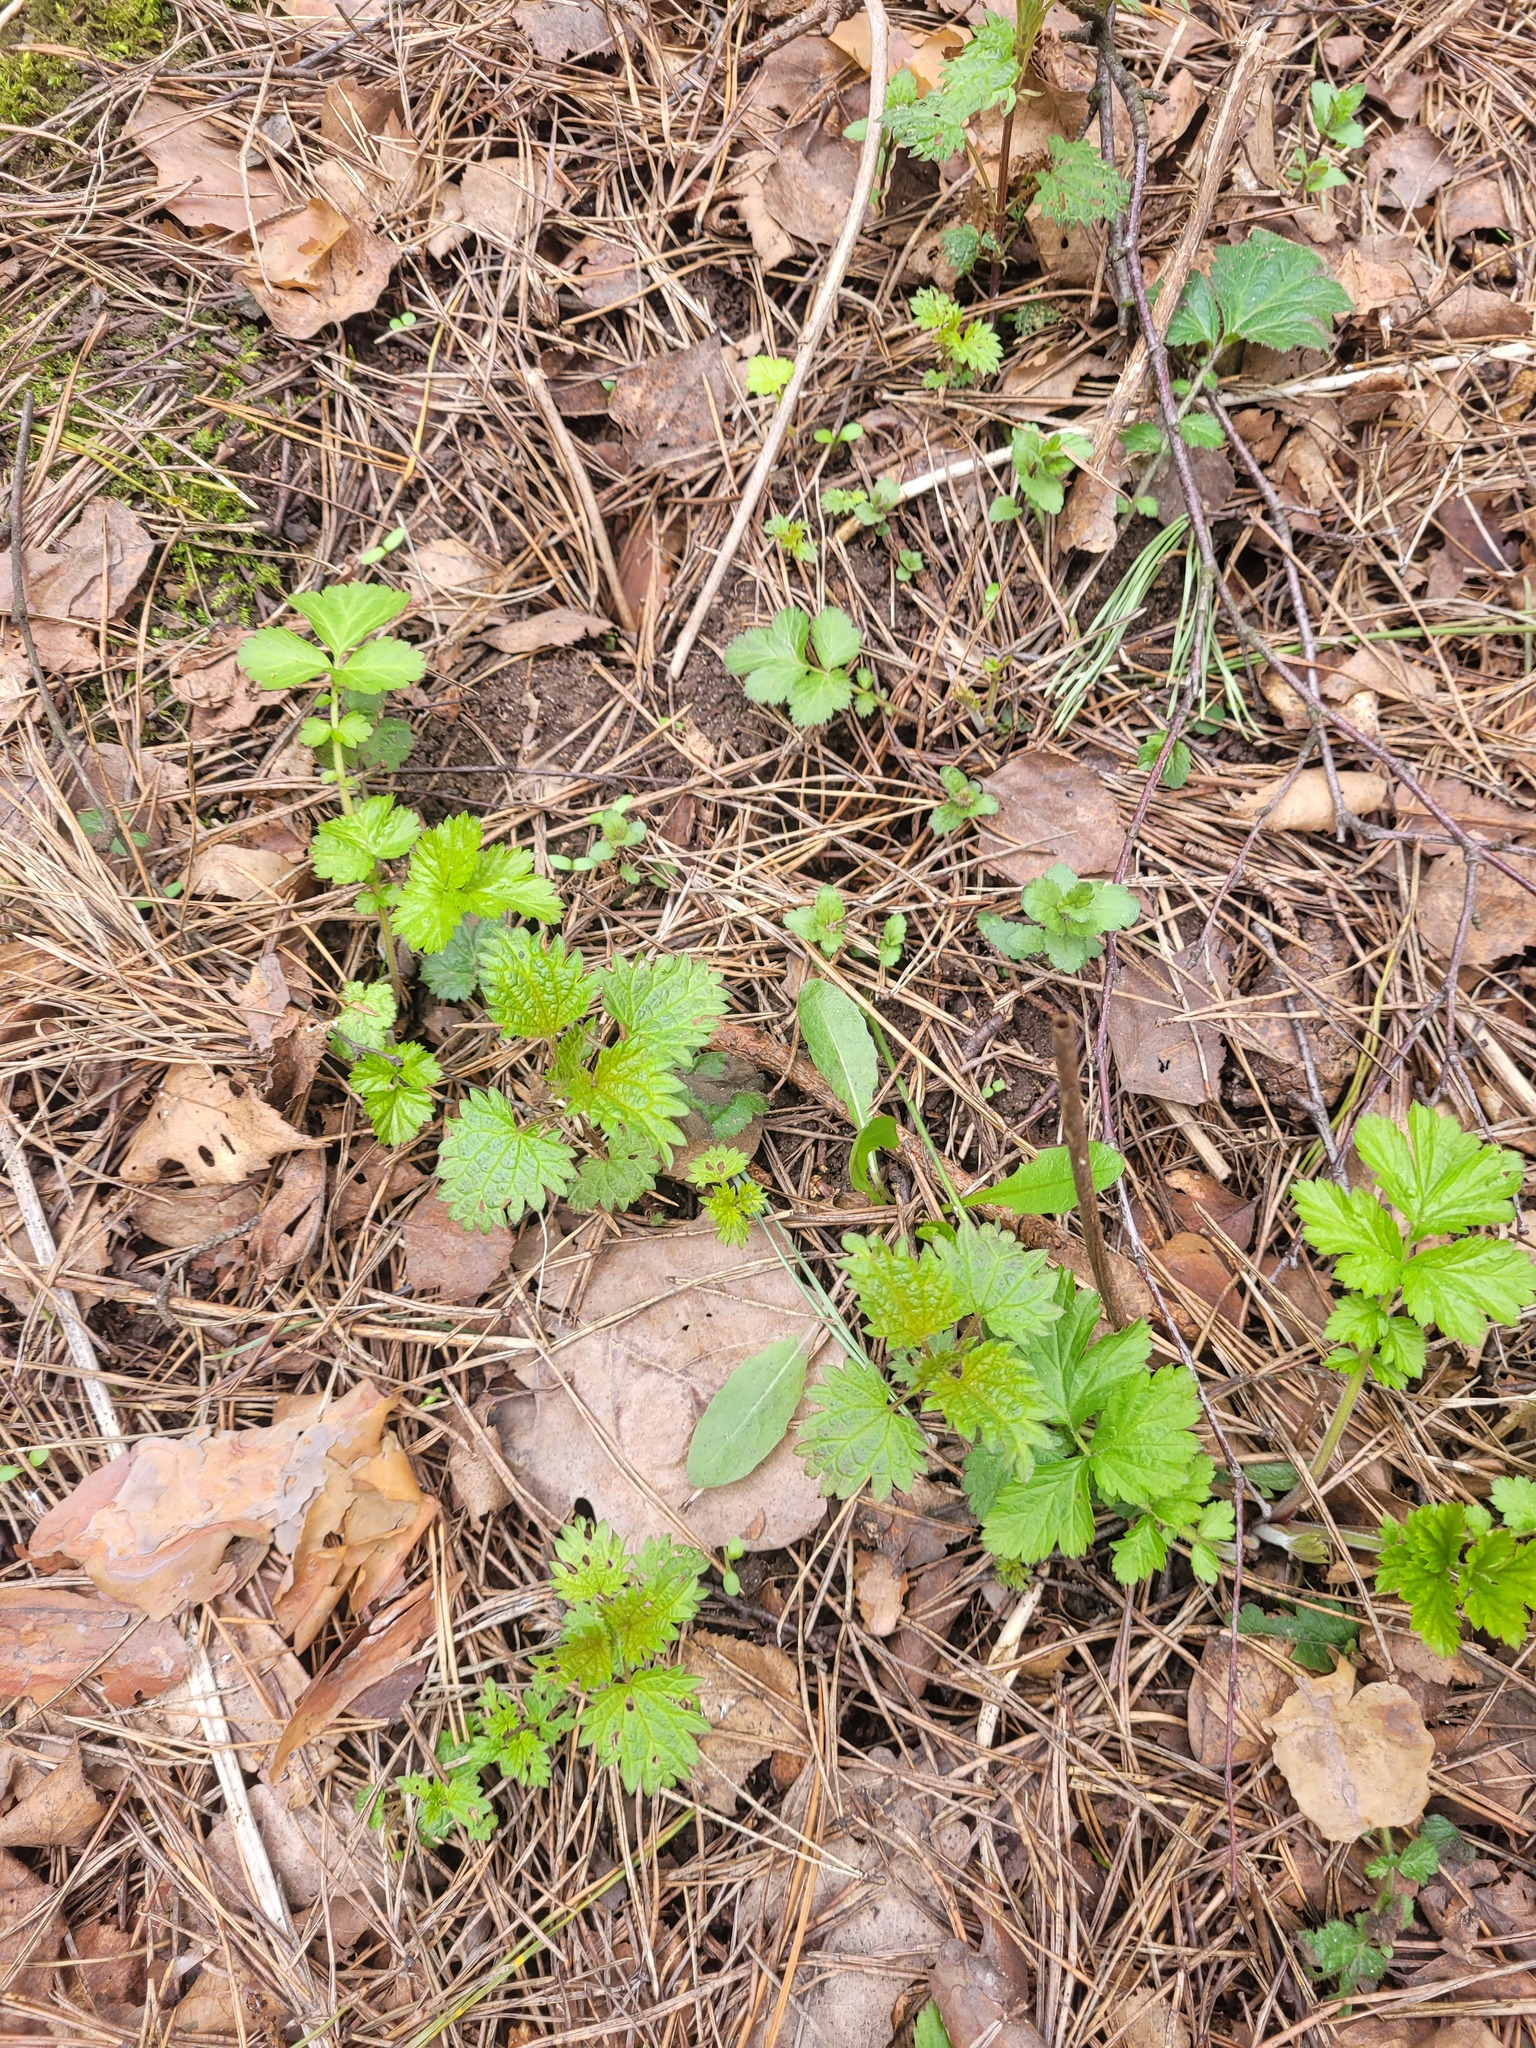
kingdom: Plantae
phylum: Tracheophyta
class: Magnoliopsida
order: Rosales
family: Urticaceae
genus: Urtica
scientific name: Urtica dioica
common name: Common nettle
